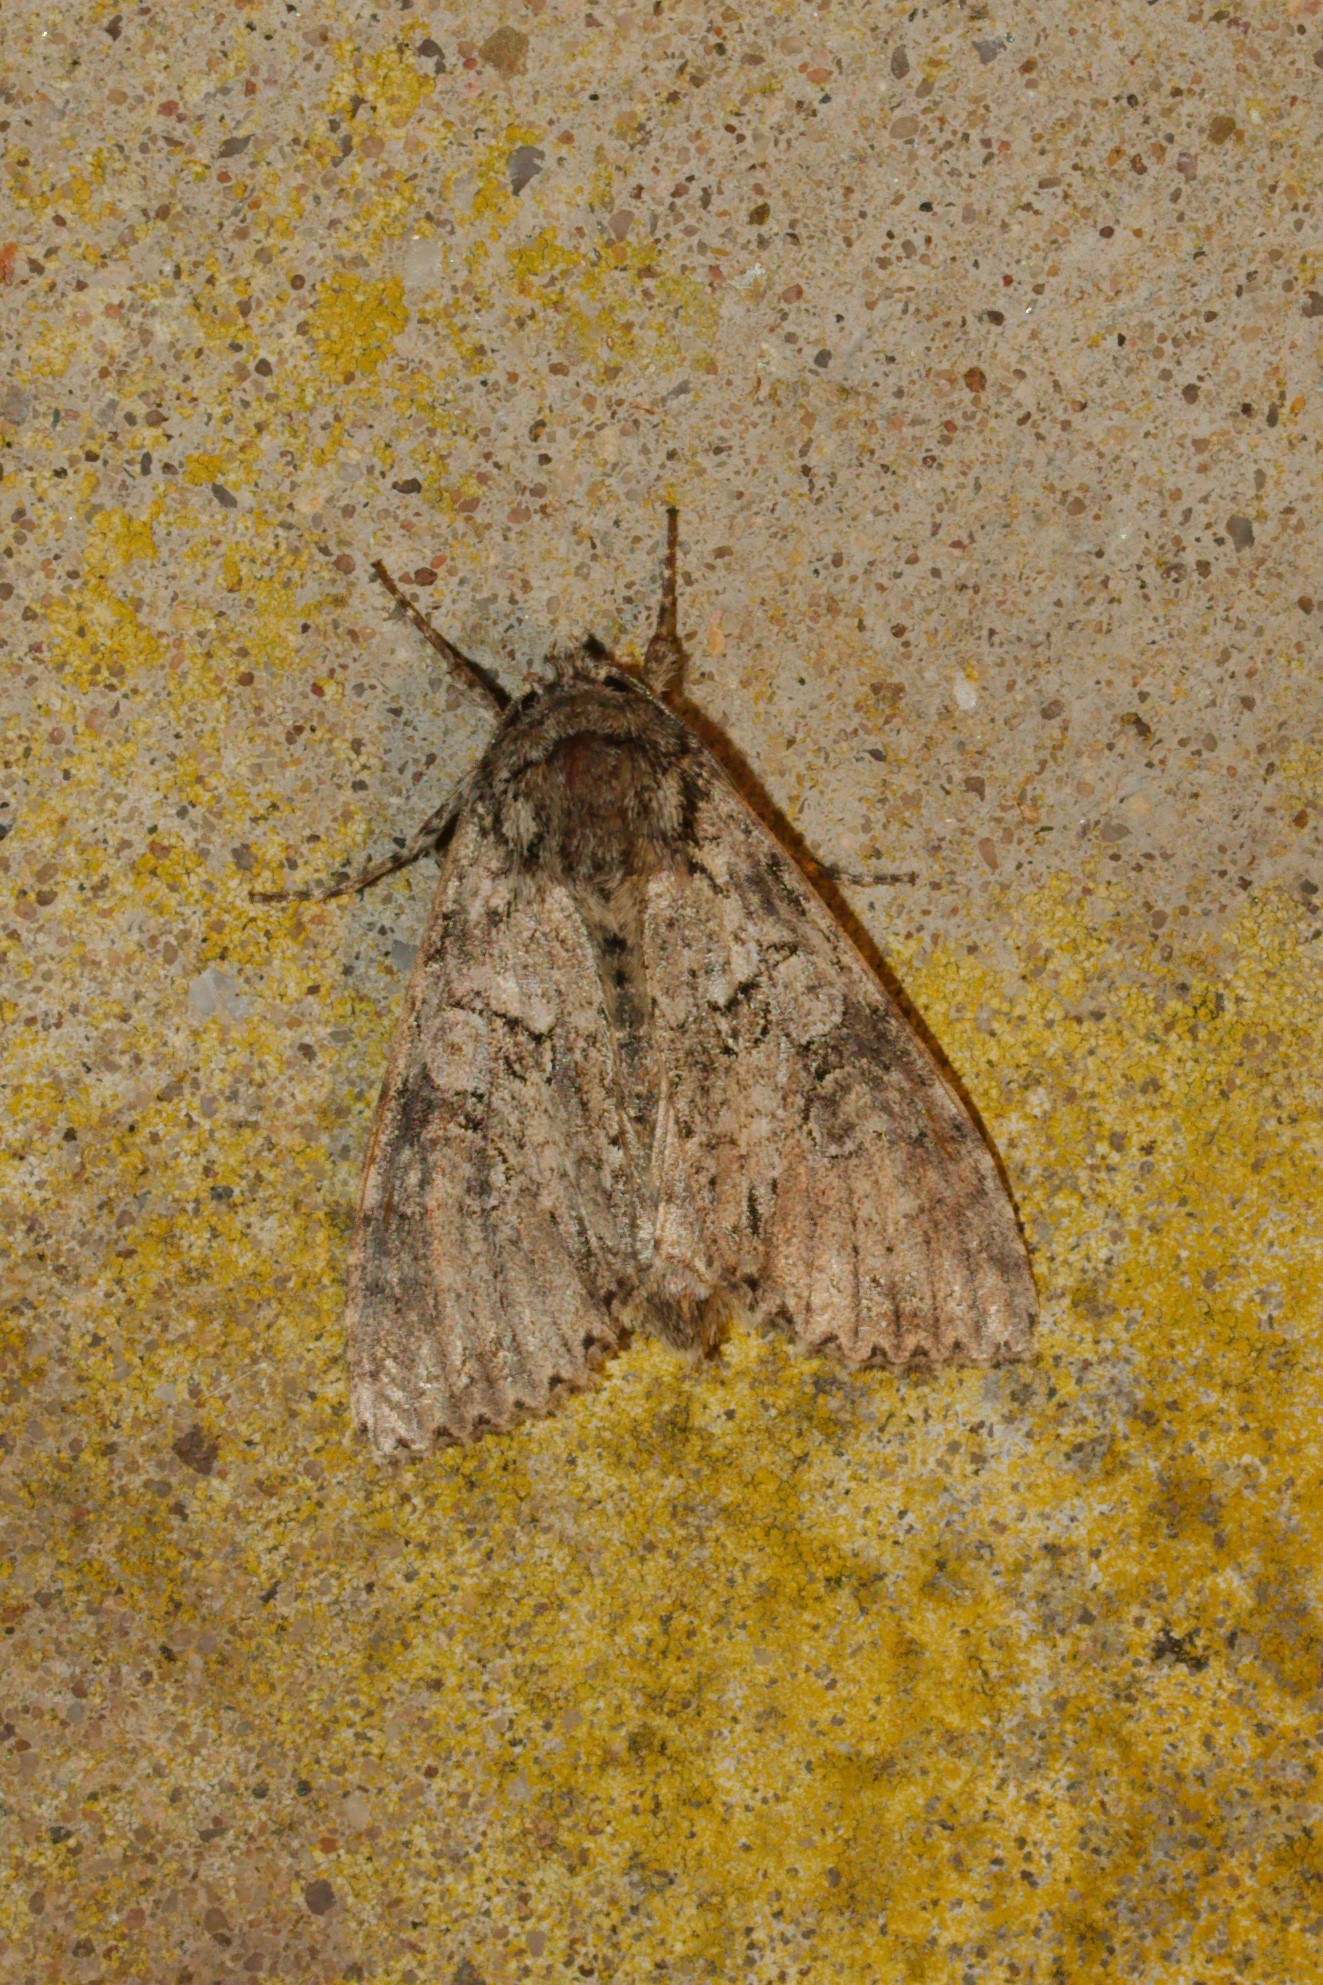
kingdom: Animalia
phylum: Arthropoda
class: Insecta
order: Lepidoptera
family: Noctuidae
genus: Polia
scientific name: Polia nebulosa
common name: Grey arches
